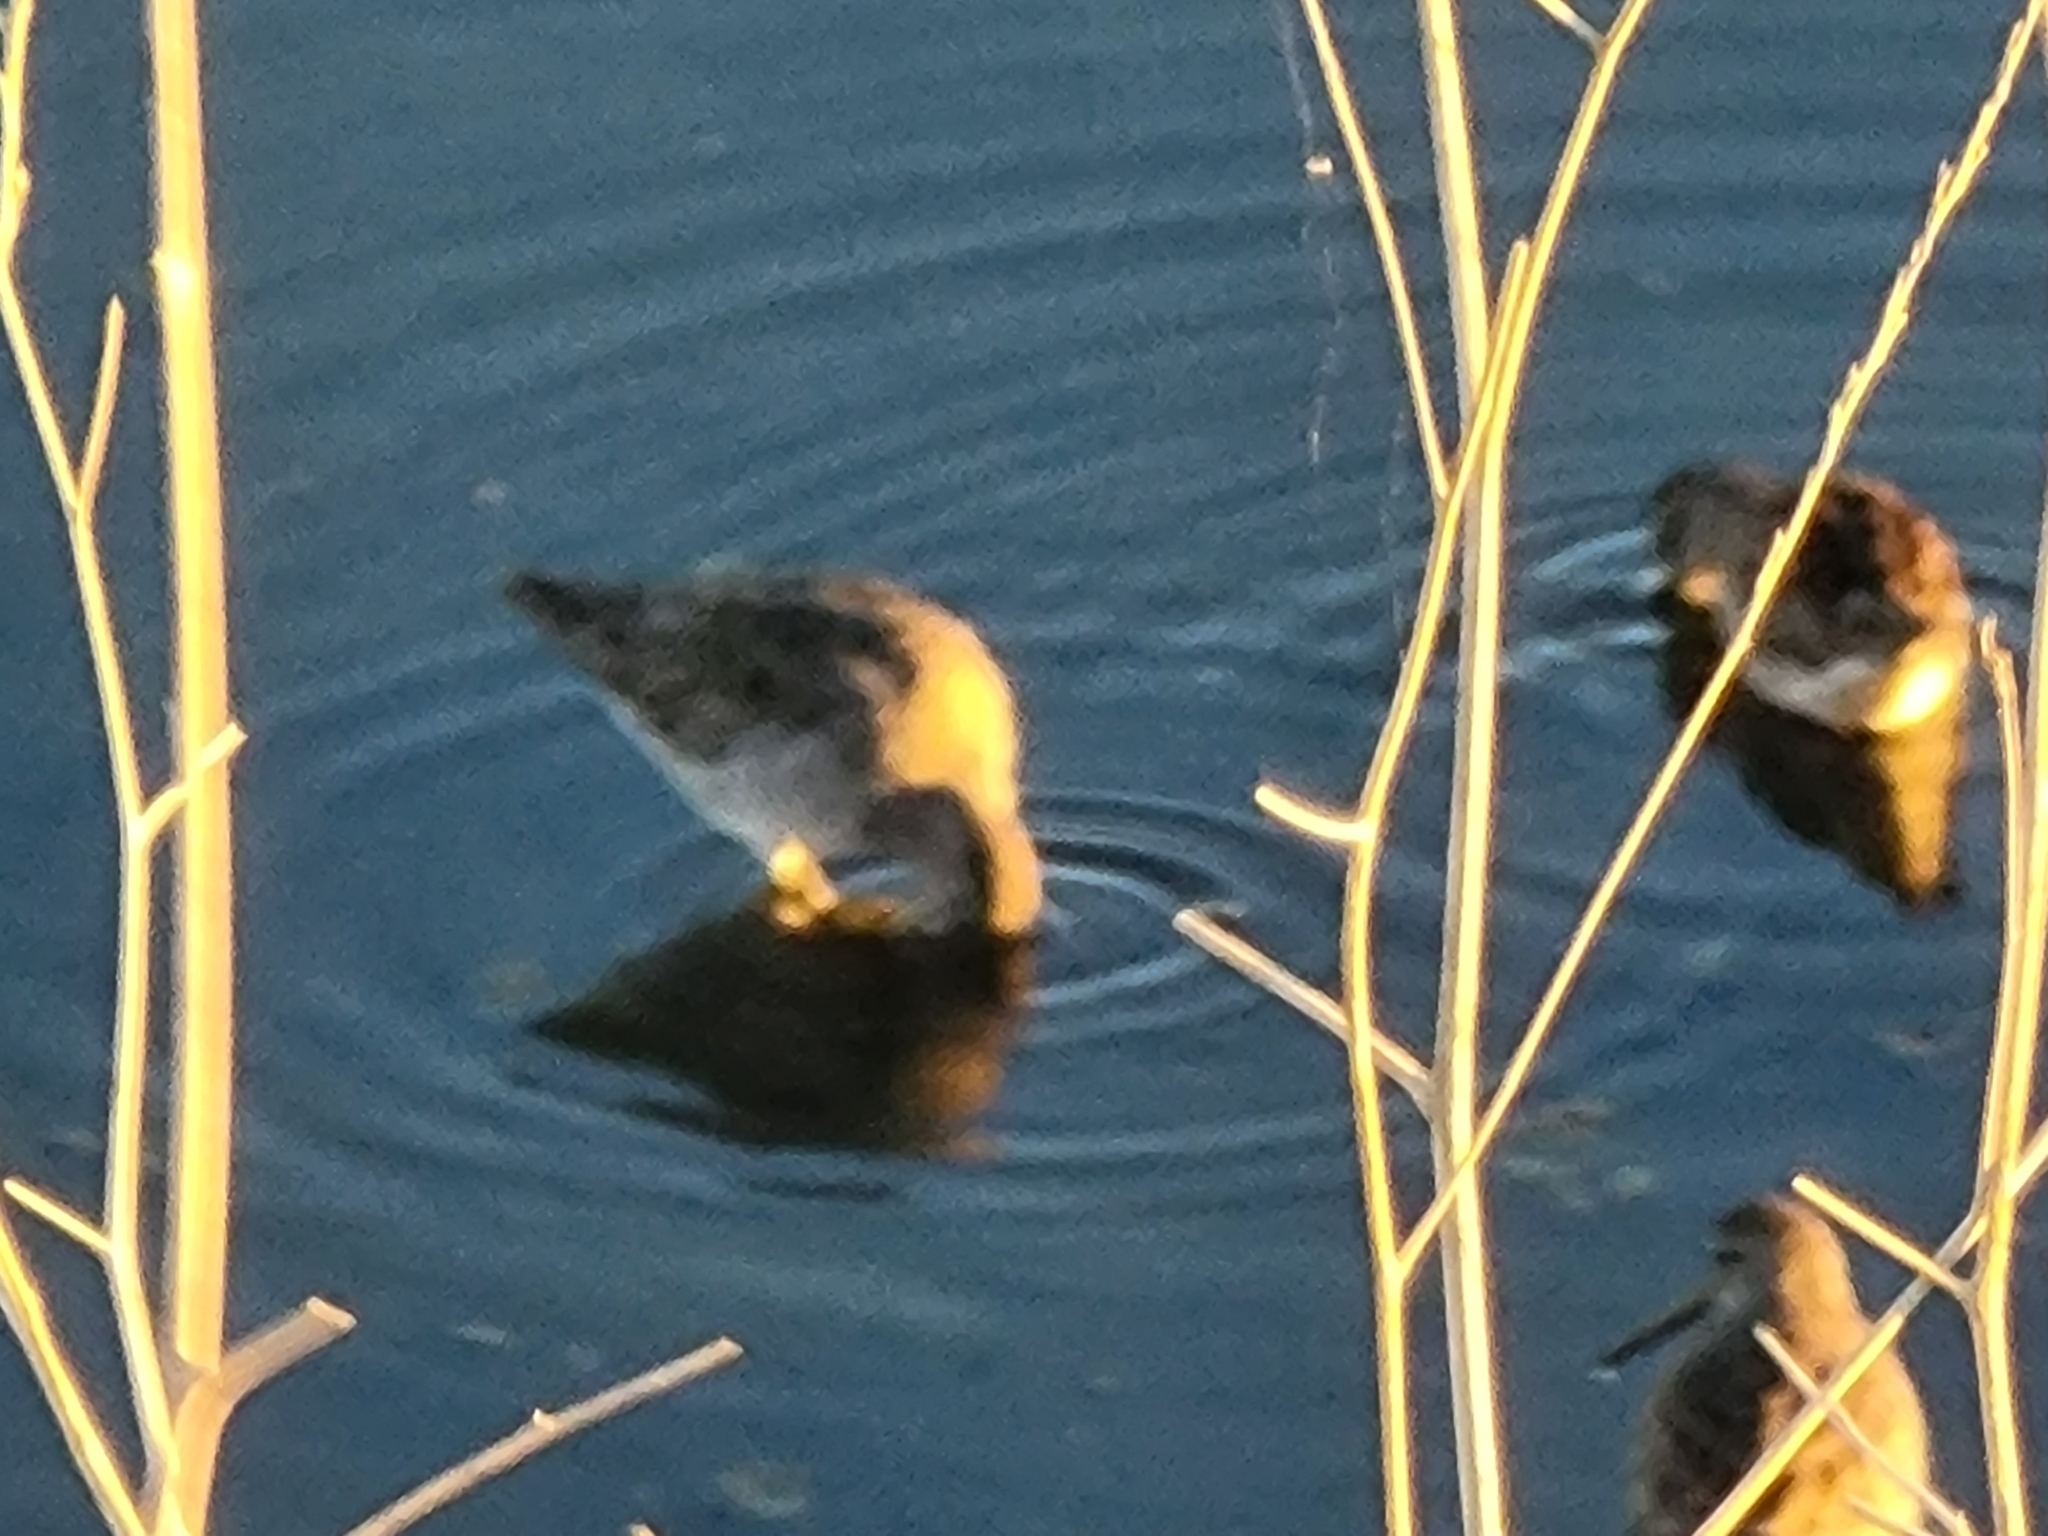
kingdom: Animalia
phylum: Chordata
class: Aves
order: Charadriiformes
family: Scolopacidae
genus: Limnodromus
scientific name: Limnodromus
